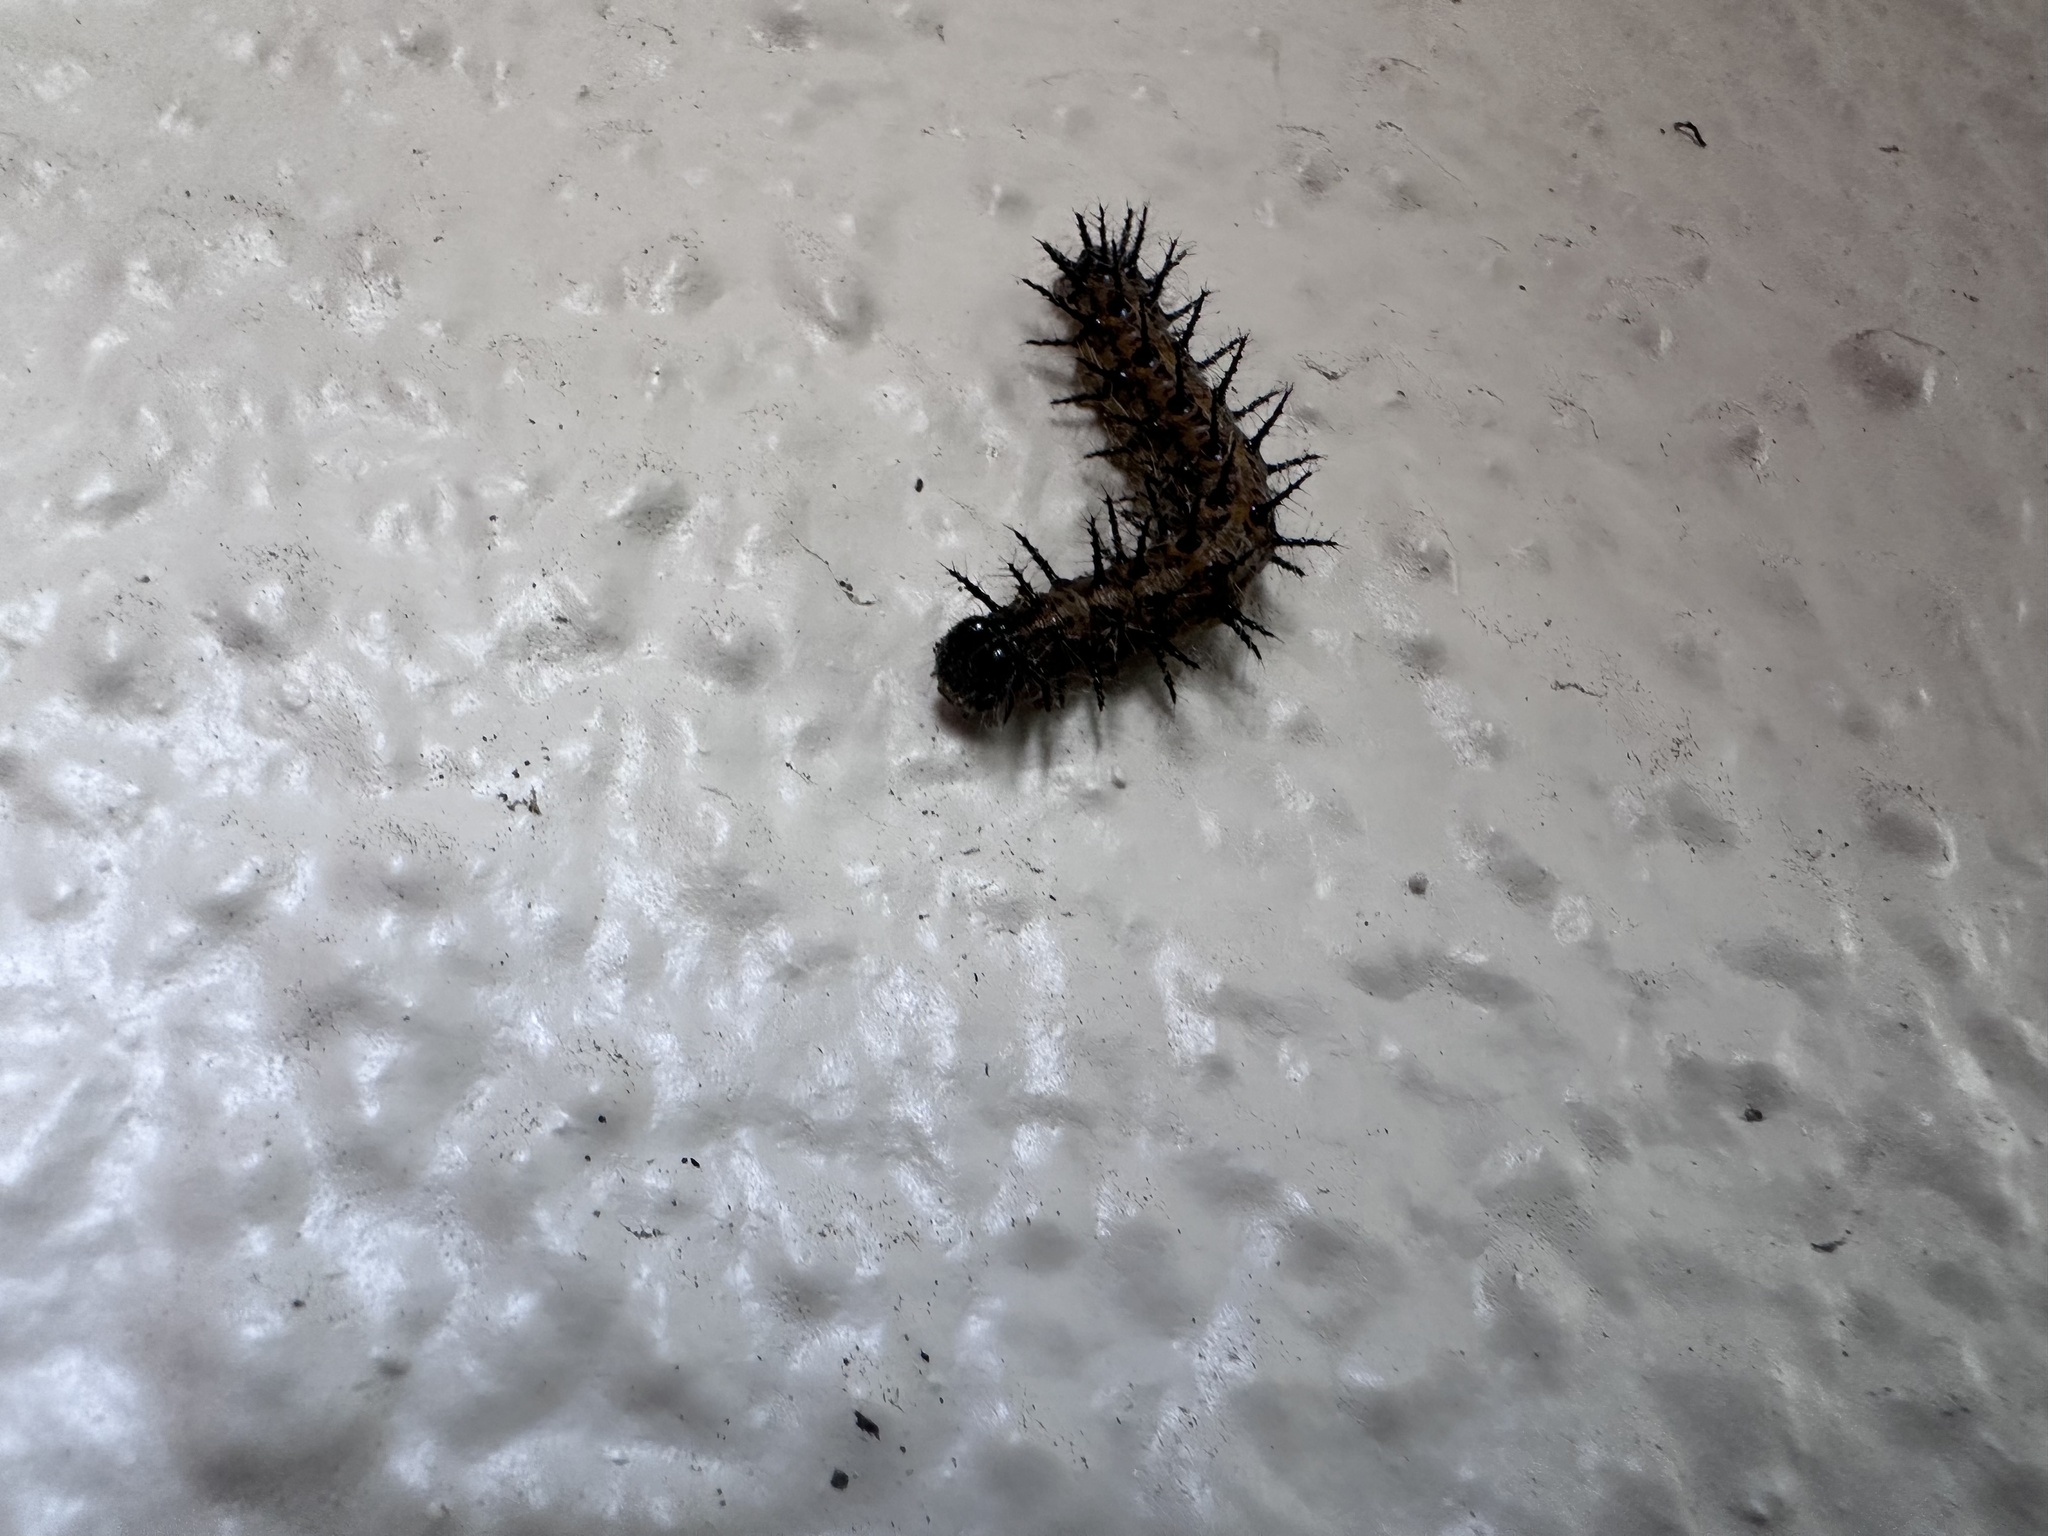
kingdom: Animalia
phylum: Arthropoda
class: Insecta
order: Lepidoptera
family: Nymphalidae
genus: Acraea
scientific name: Acraea horta
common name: Garden acraea
